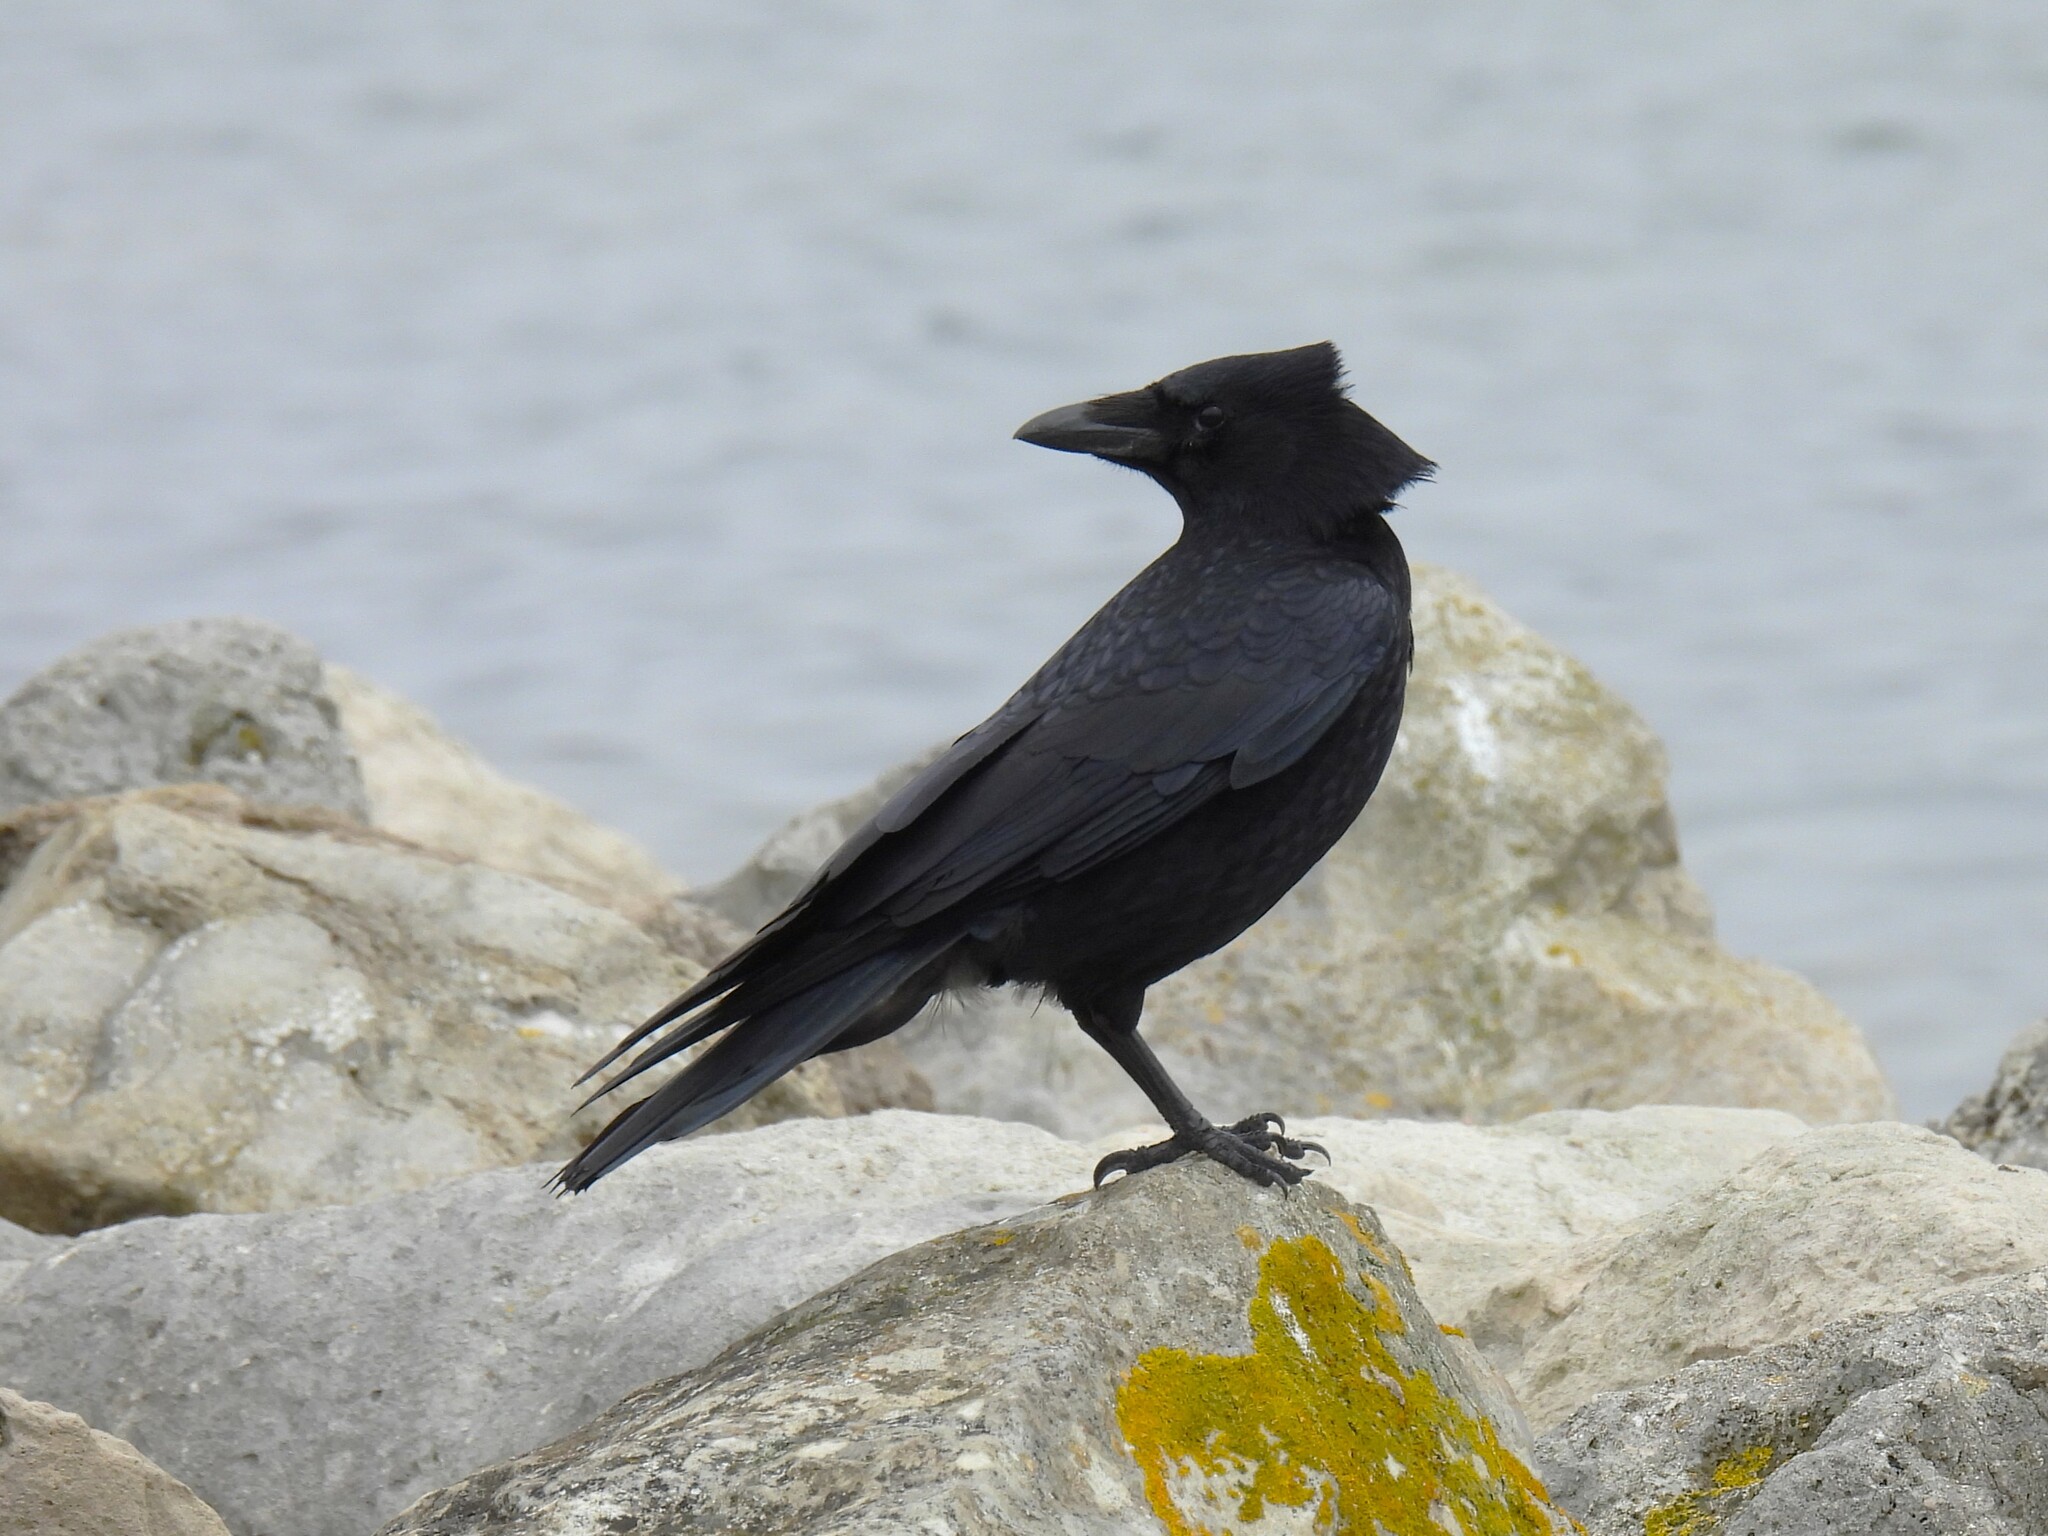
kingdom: Animalia
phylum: Chordata
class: Aves
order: Passeriformes
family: Corvidae
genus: Corvus
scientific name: Corvus corone
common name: Carrion crow
